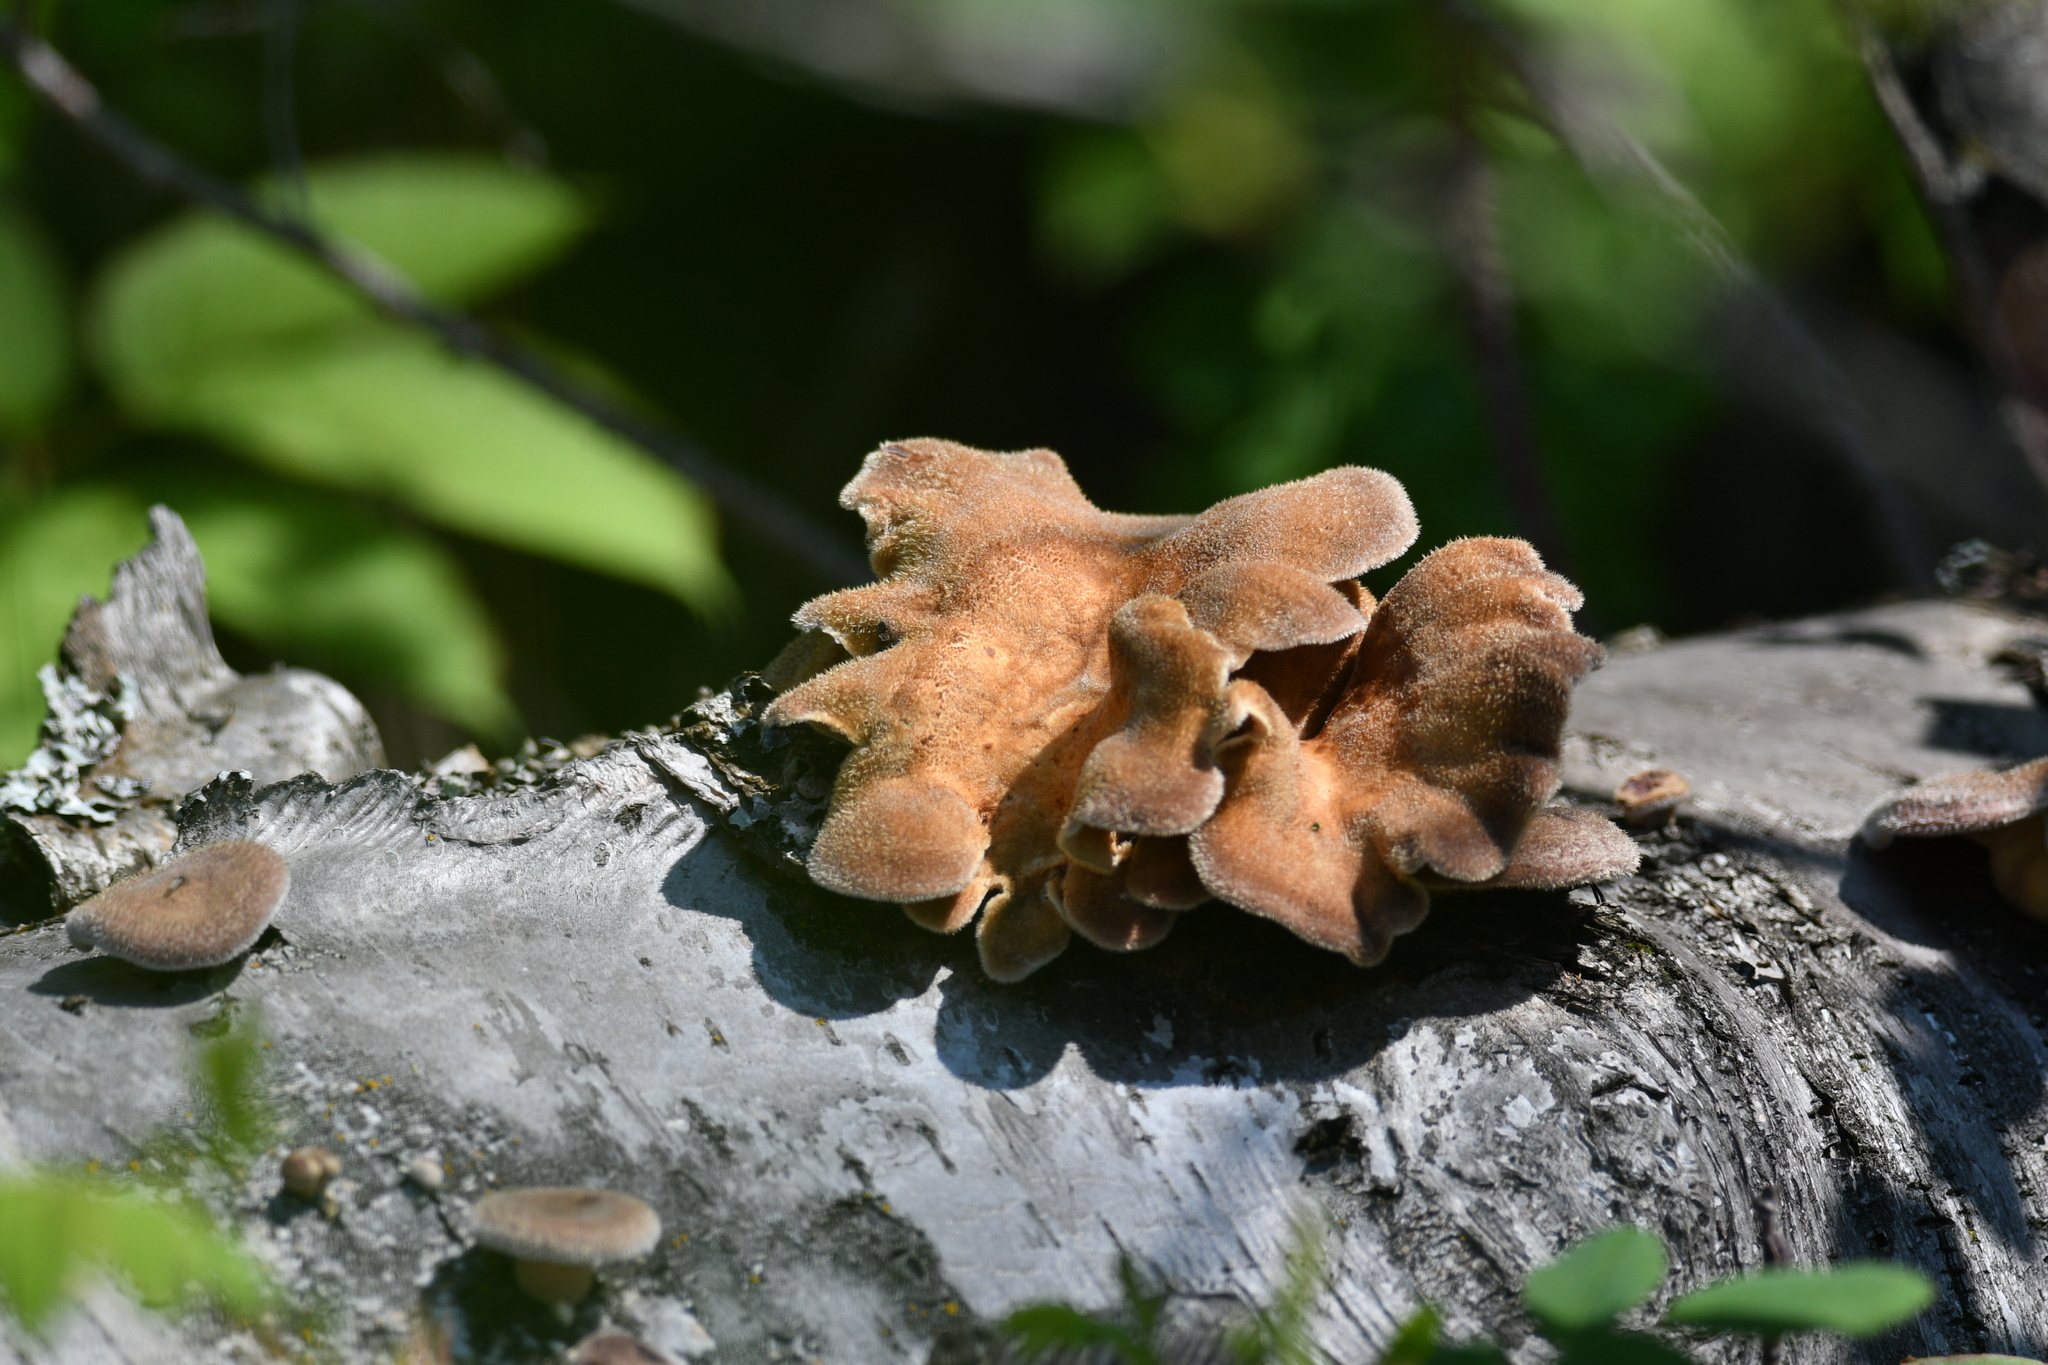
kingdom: Fungi
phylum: Basidiomycota
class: Agaricomycetes
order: Polyporales
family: Panaceae
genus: Panus
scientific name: Panus neostrigosus
